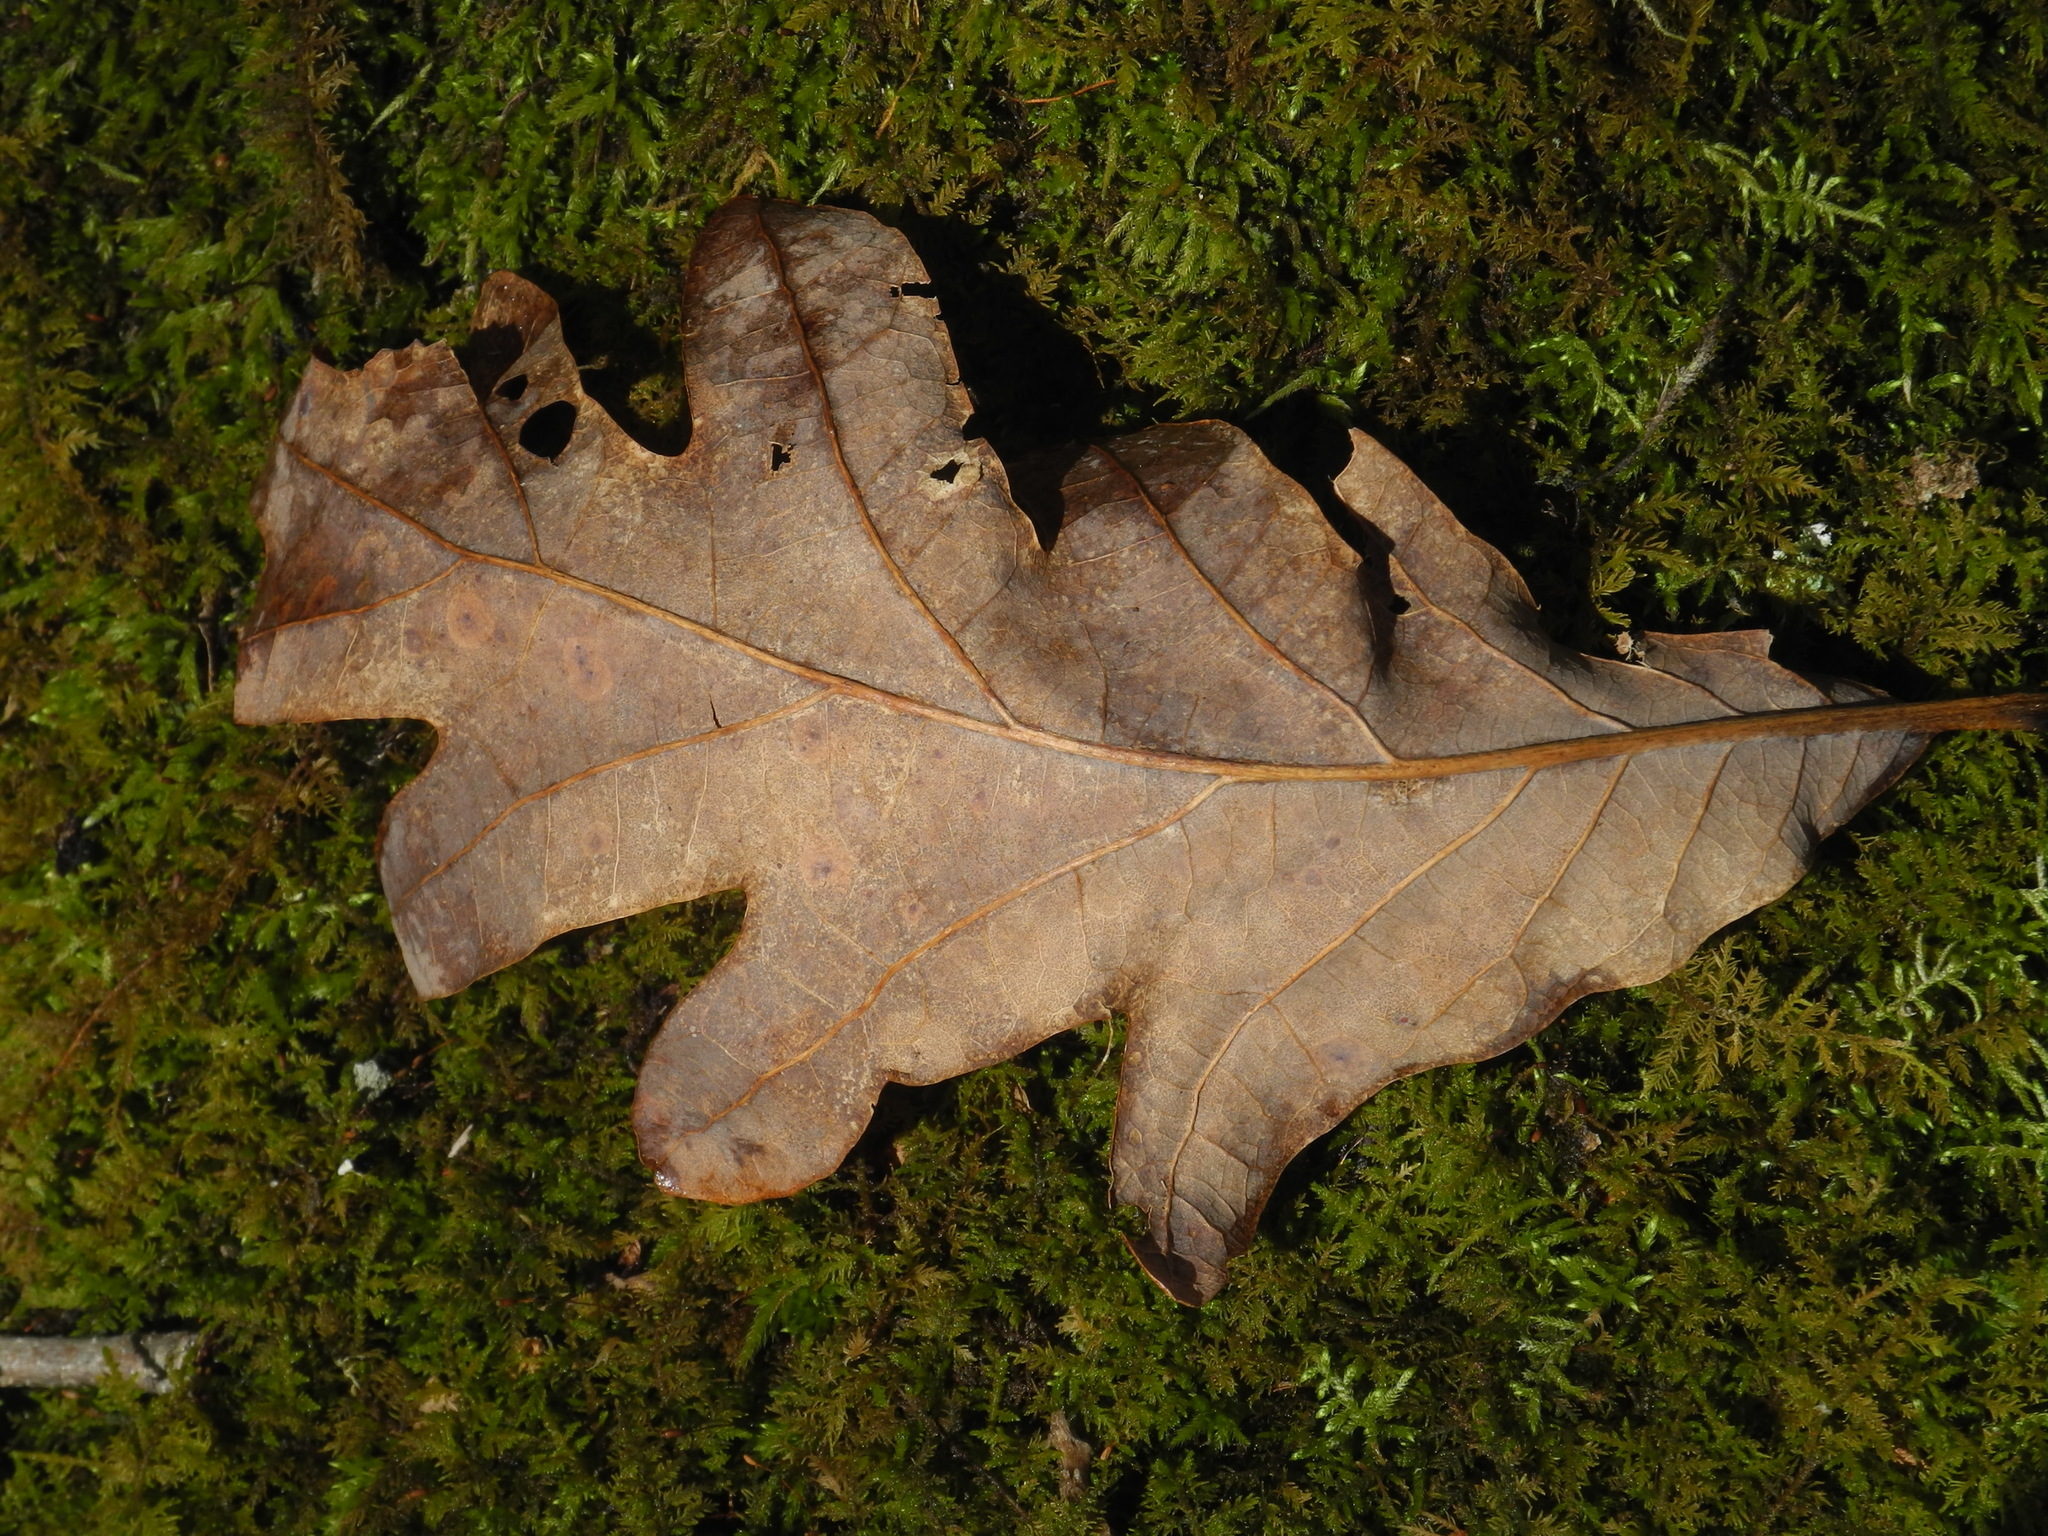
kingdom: Plantae
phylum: Tracheophyta
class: Magnoliopsida
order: Fagales
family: Fagaceae
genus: Quercus
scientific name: Quercus alba
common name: White oak
